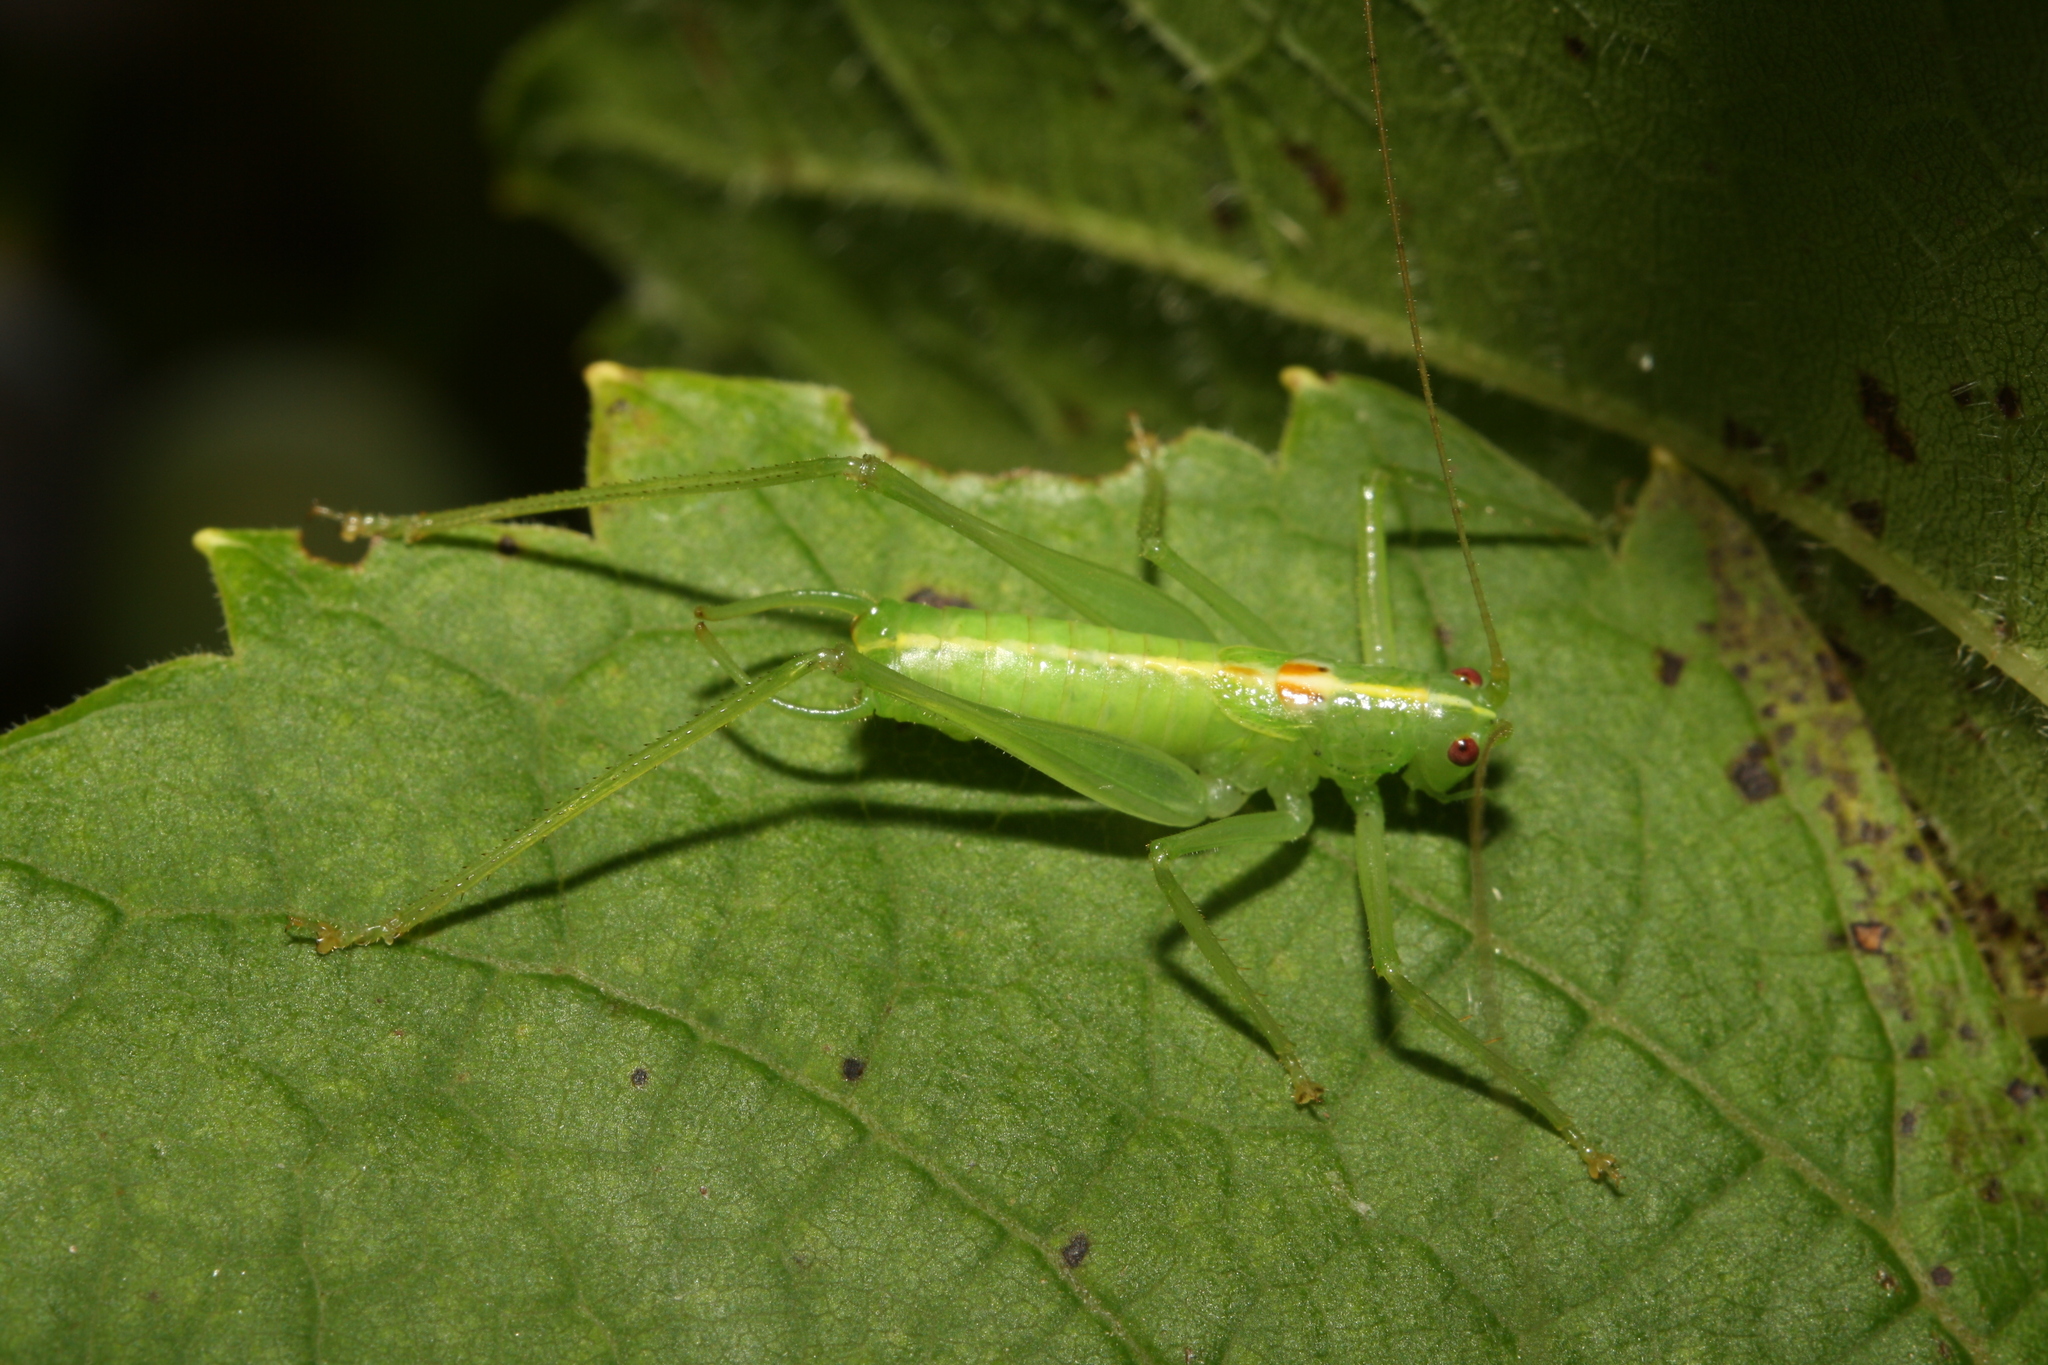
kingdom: Animalia
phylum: Arthropoda
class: Insecta
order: Orthoptera
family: Tettigoniidae
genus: Meconema
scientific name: Meconema meridionale
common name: Southern oak bush-cricket
